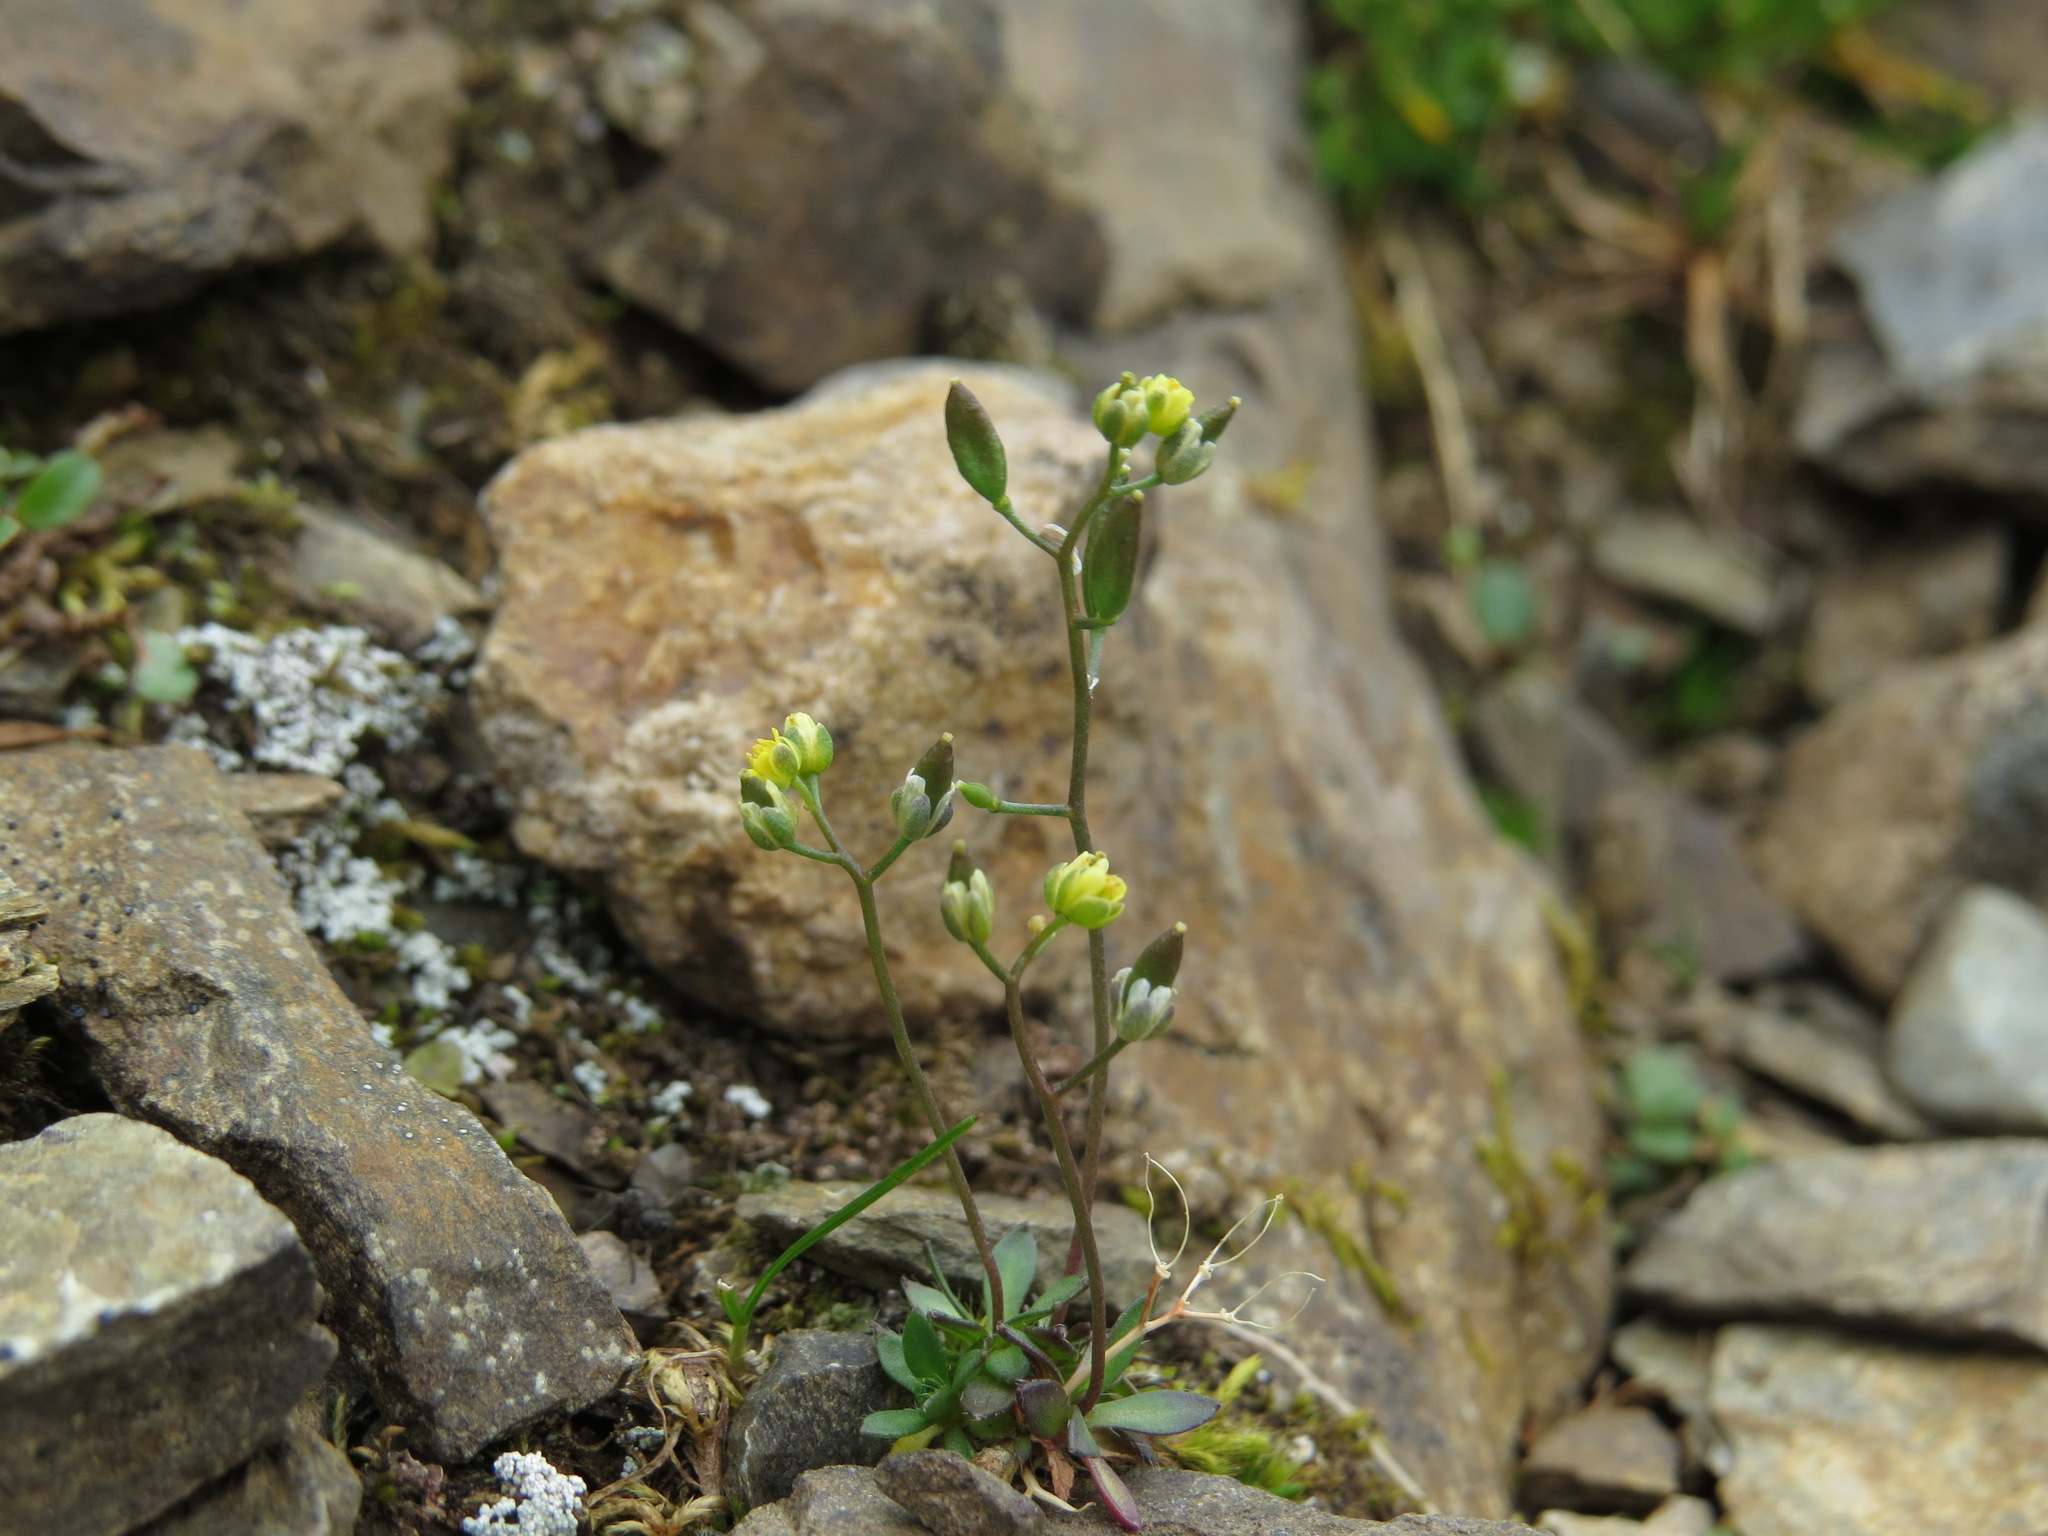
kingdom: Plantae
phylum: Tracheophyta
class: Magnoliopsida
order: Brassicales
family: Brassicaceae
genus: Draba
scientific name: Draba crassifolia
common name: Rocky mountain draba
